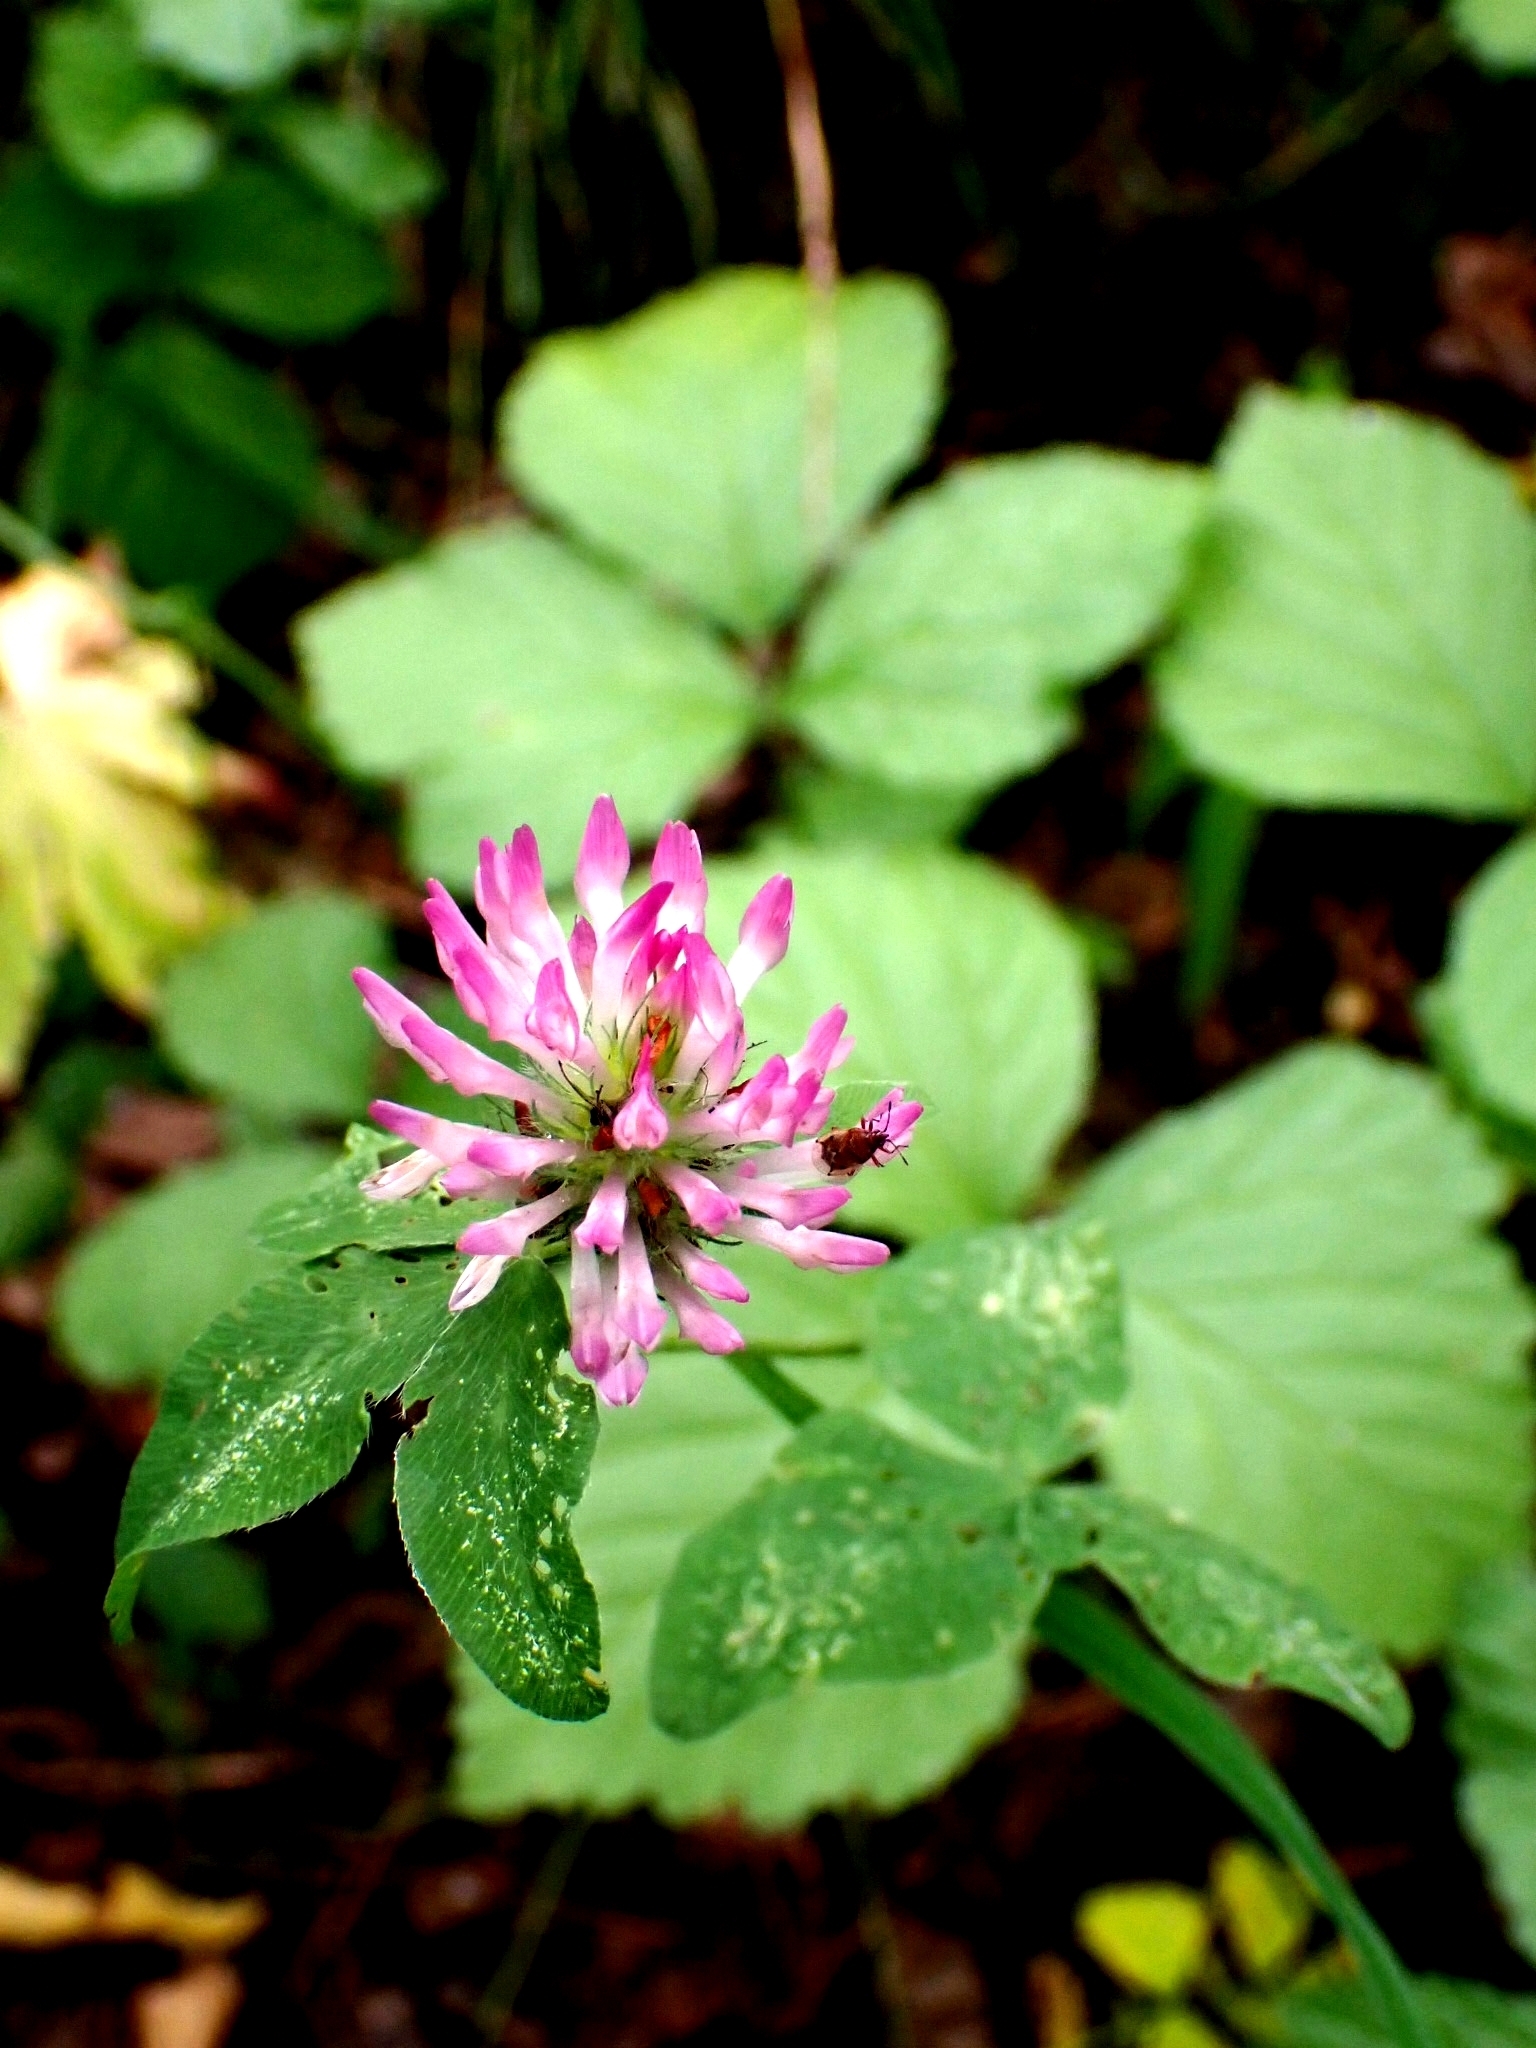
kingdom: Plantae
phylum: Tracheophyta
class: Magnoliopsida
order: Fabales
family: Fabaceae
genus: Trifolium
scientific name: Trifolium pratense
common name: Red clover
